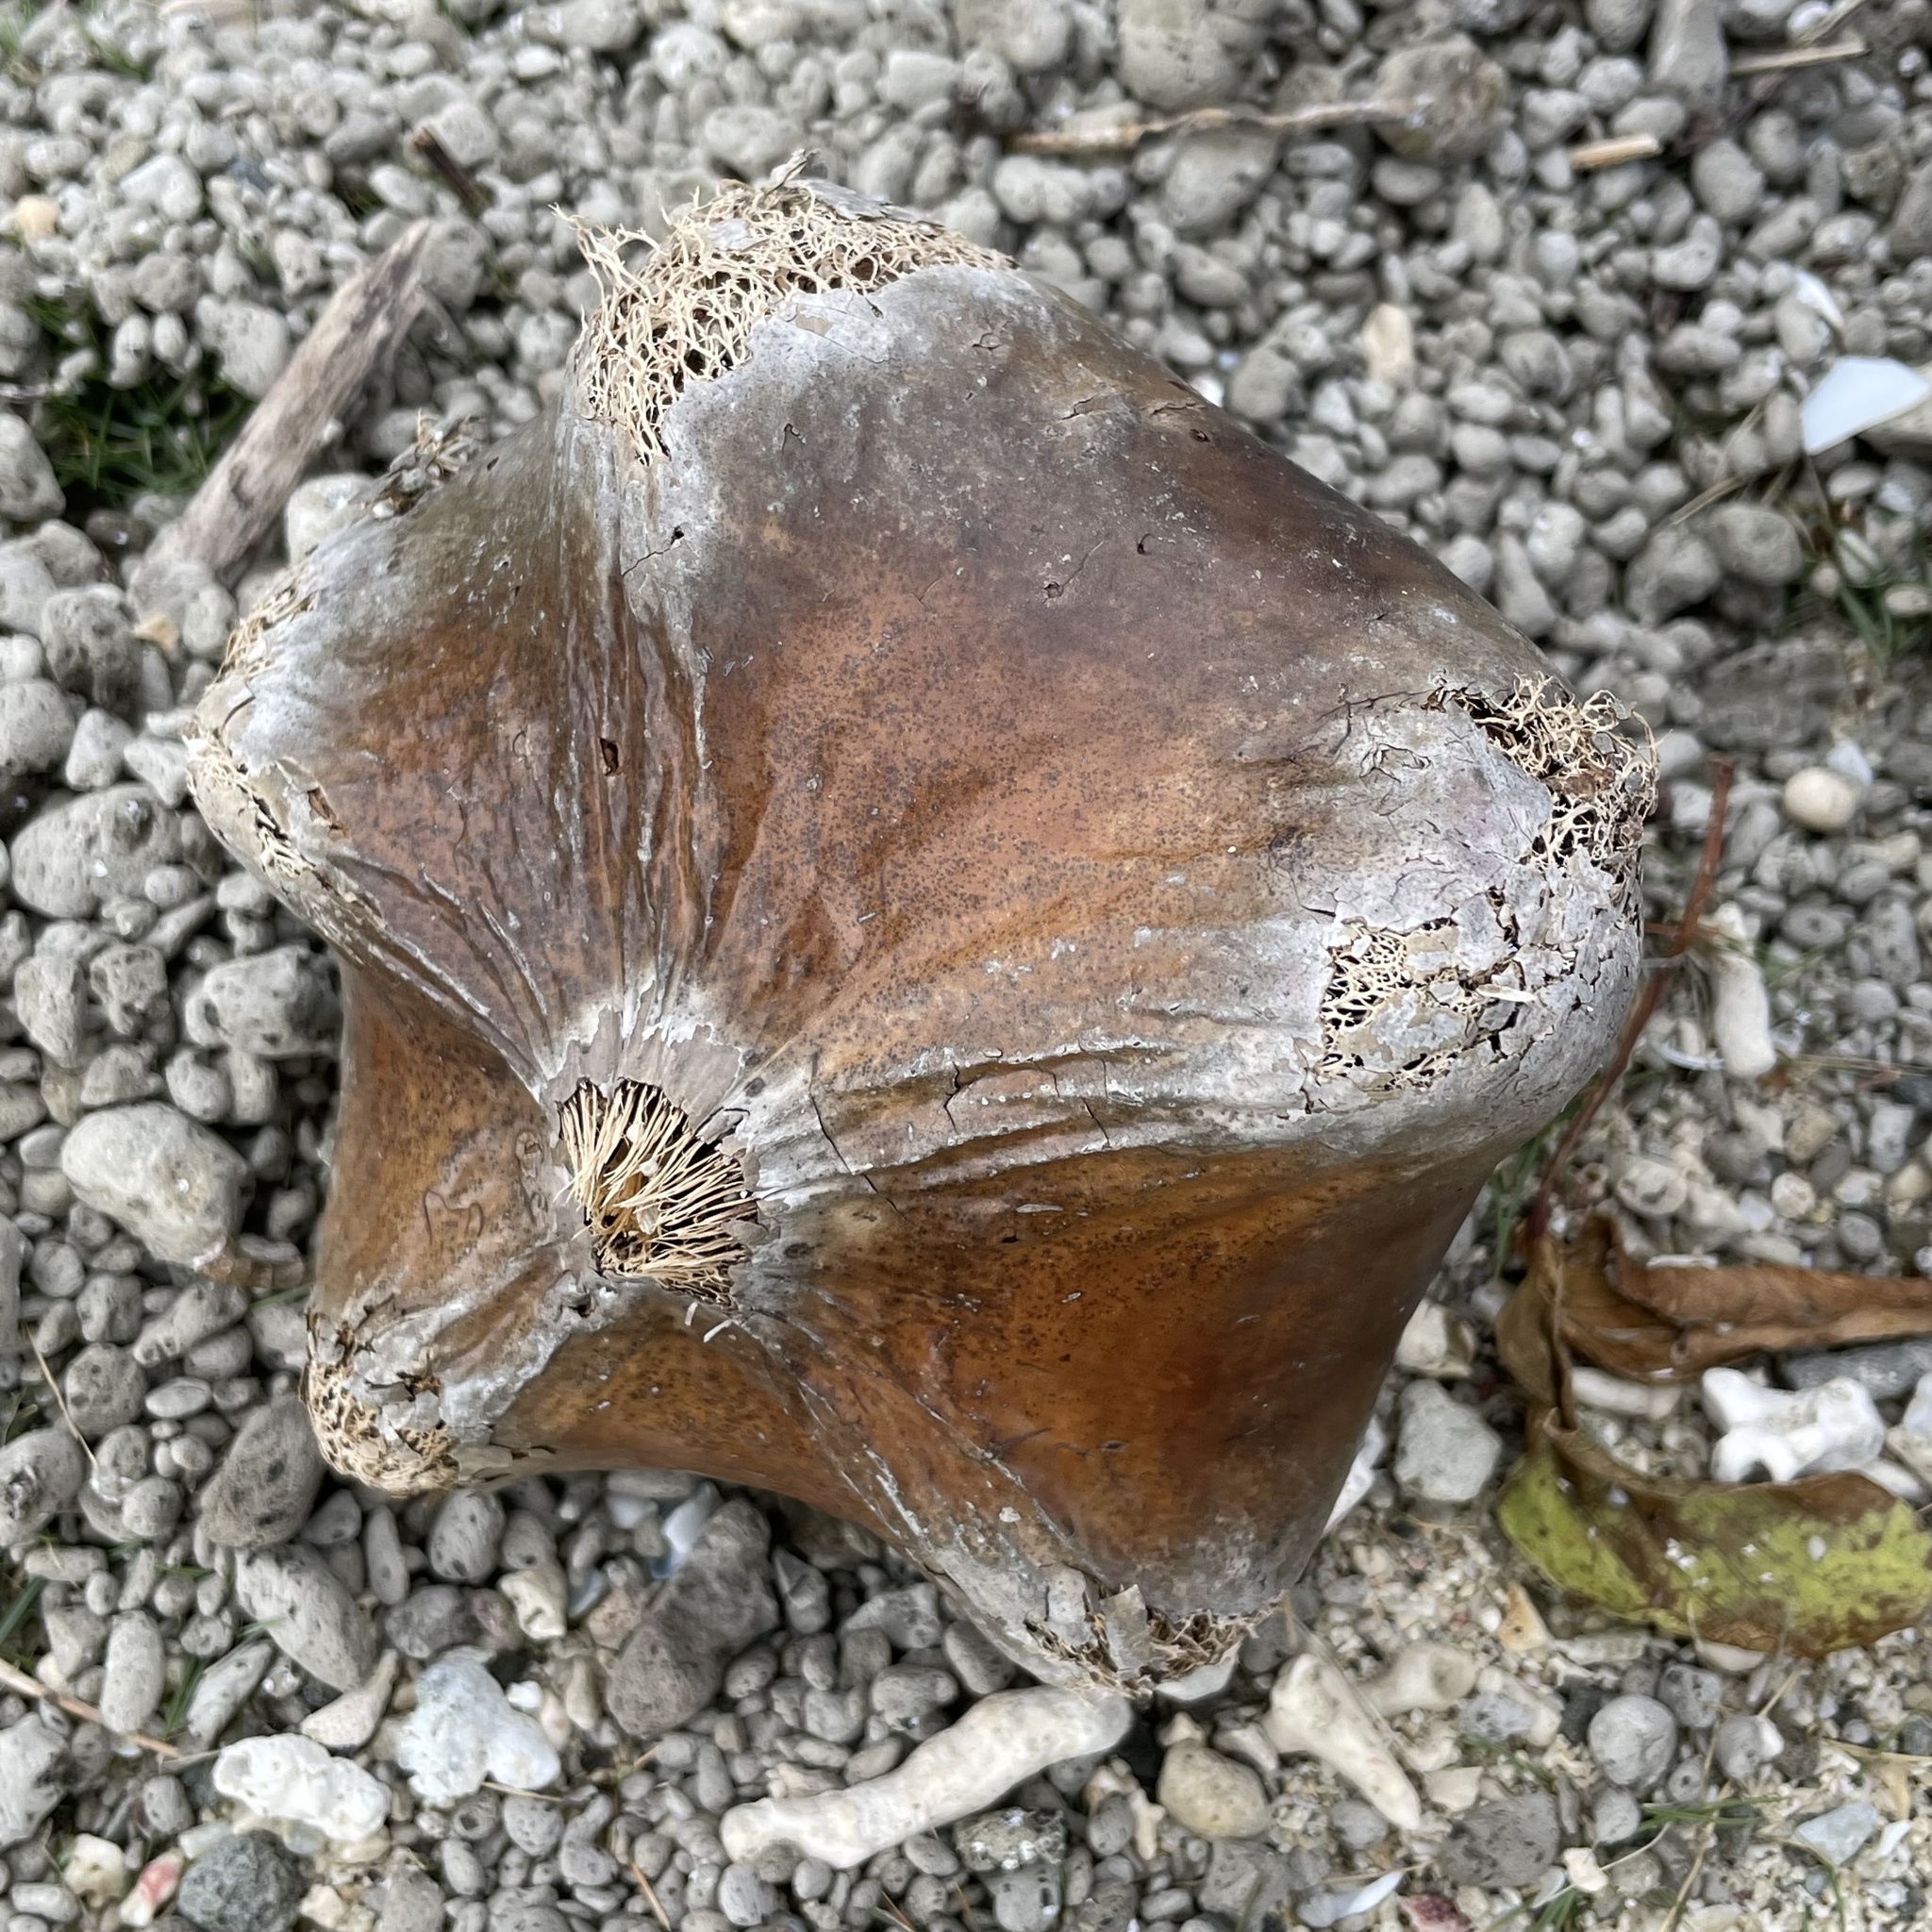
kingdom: Plantae
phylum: Tracheophyta
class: Magnoliopsida
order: Ericales
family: Lecythidaceae
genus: Barringtonia
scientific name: Barringtonia asiatica
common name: Mango-pine
